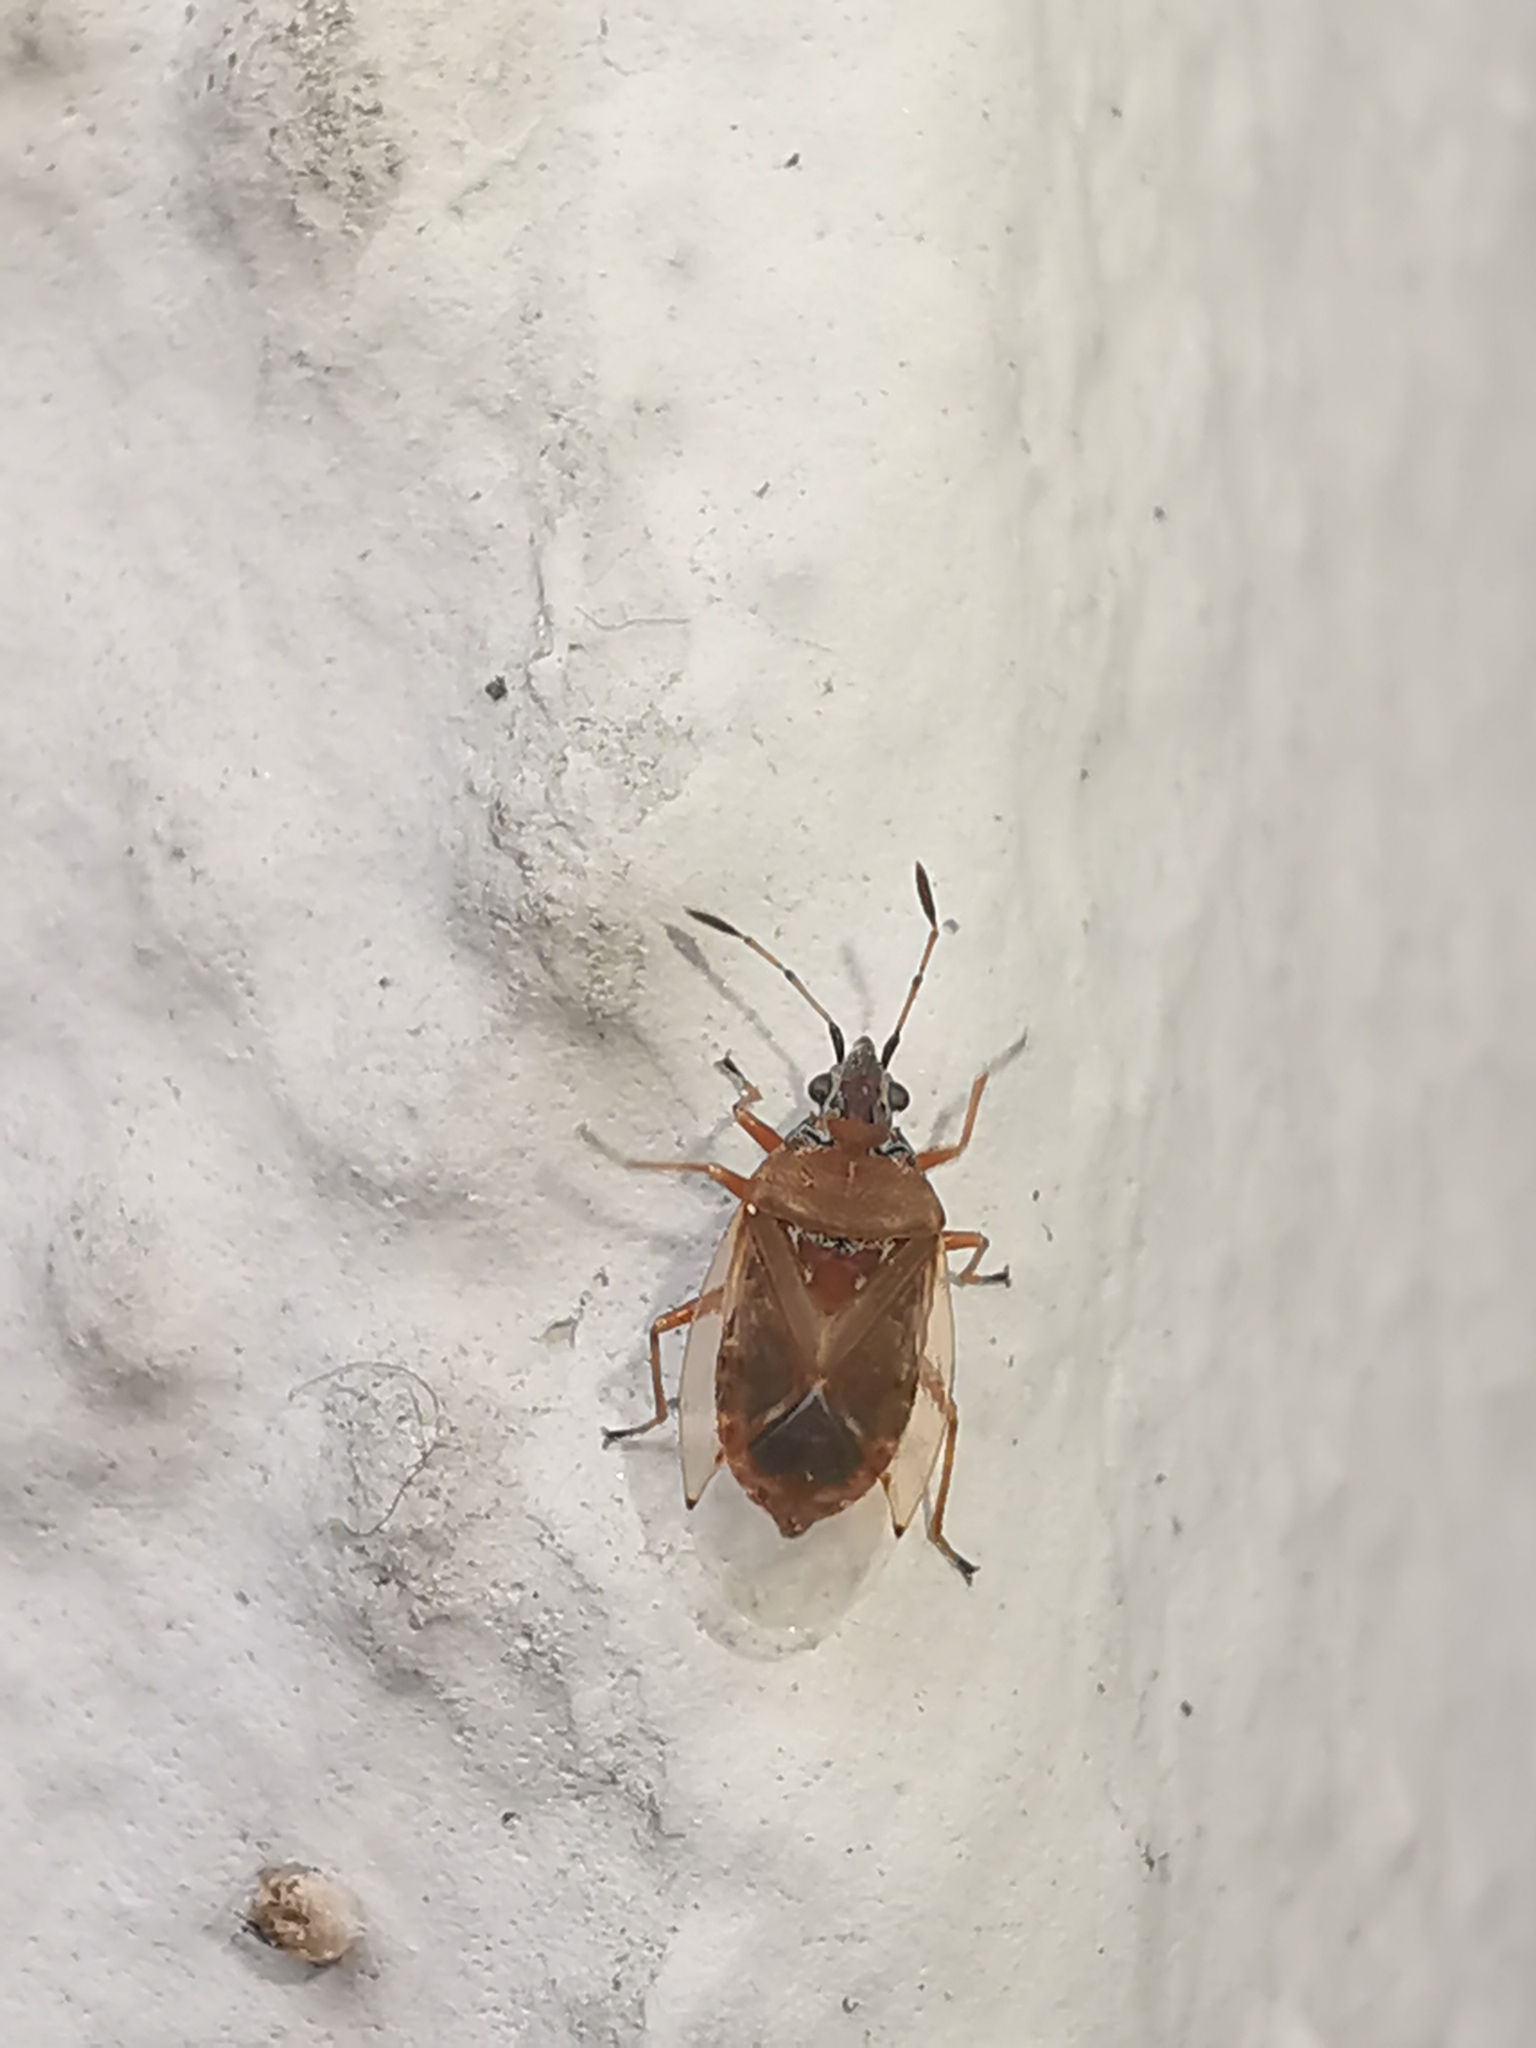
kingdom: Animalia
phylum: Arthropoda
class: Insecta
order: Hemiptera
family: Lygaeidae
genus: Kleidocerys
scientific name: Kleidocerys resedae
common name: Birch catkin bug
